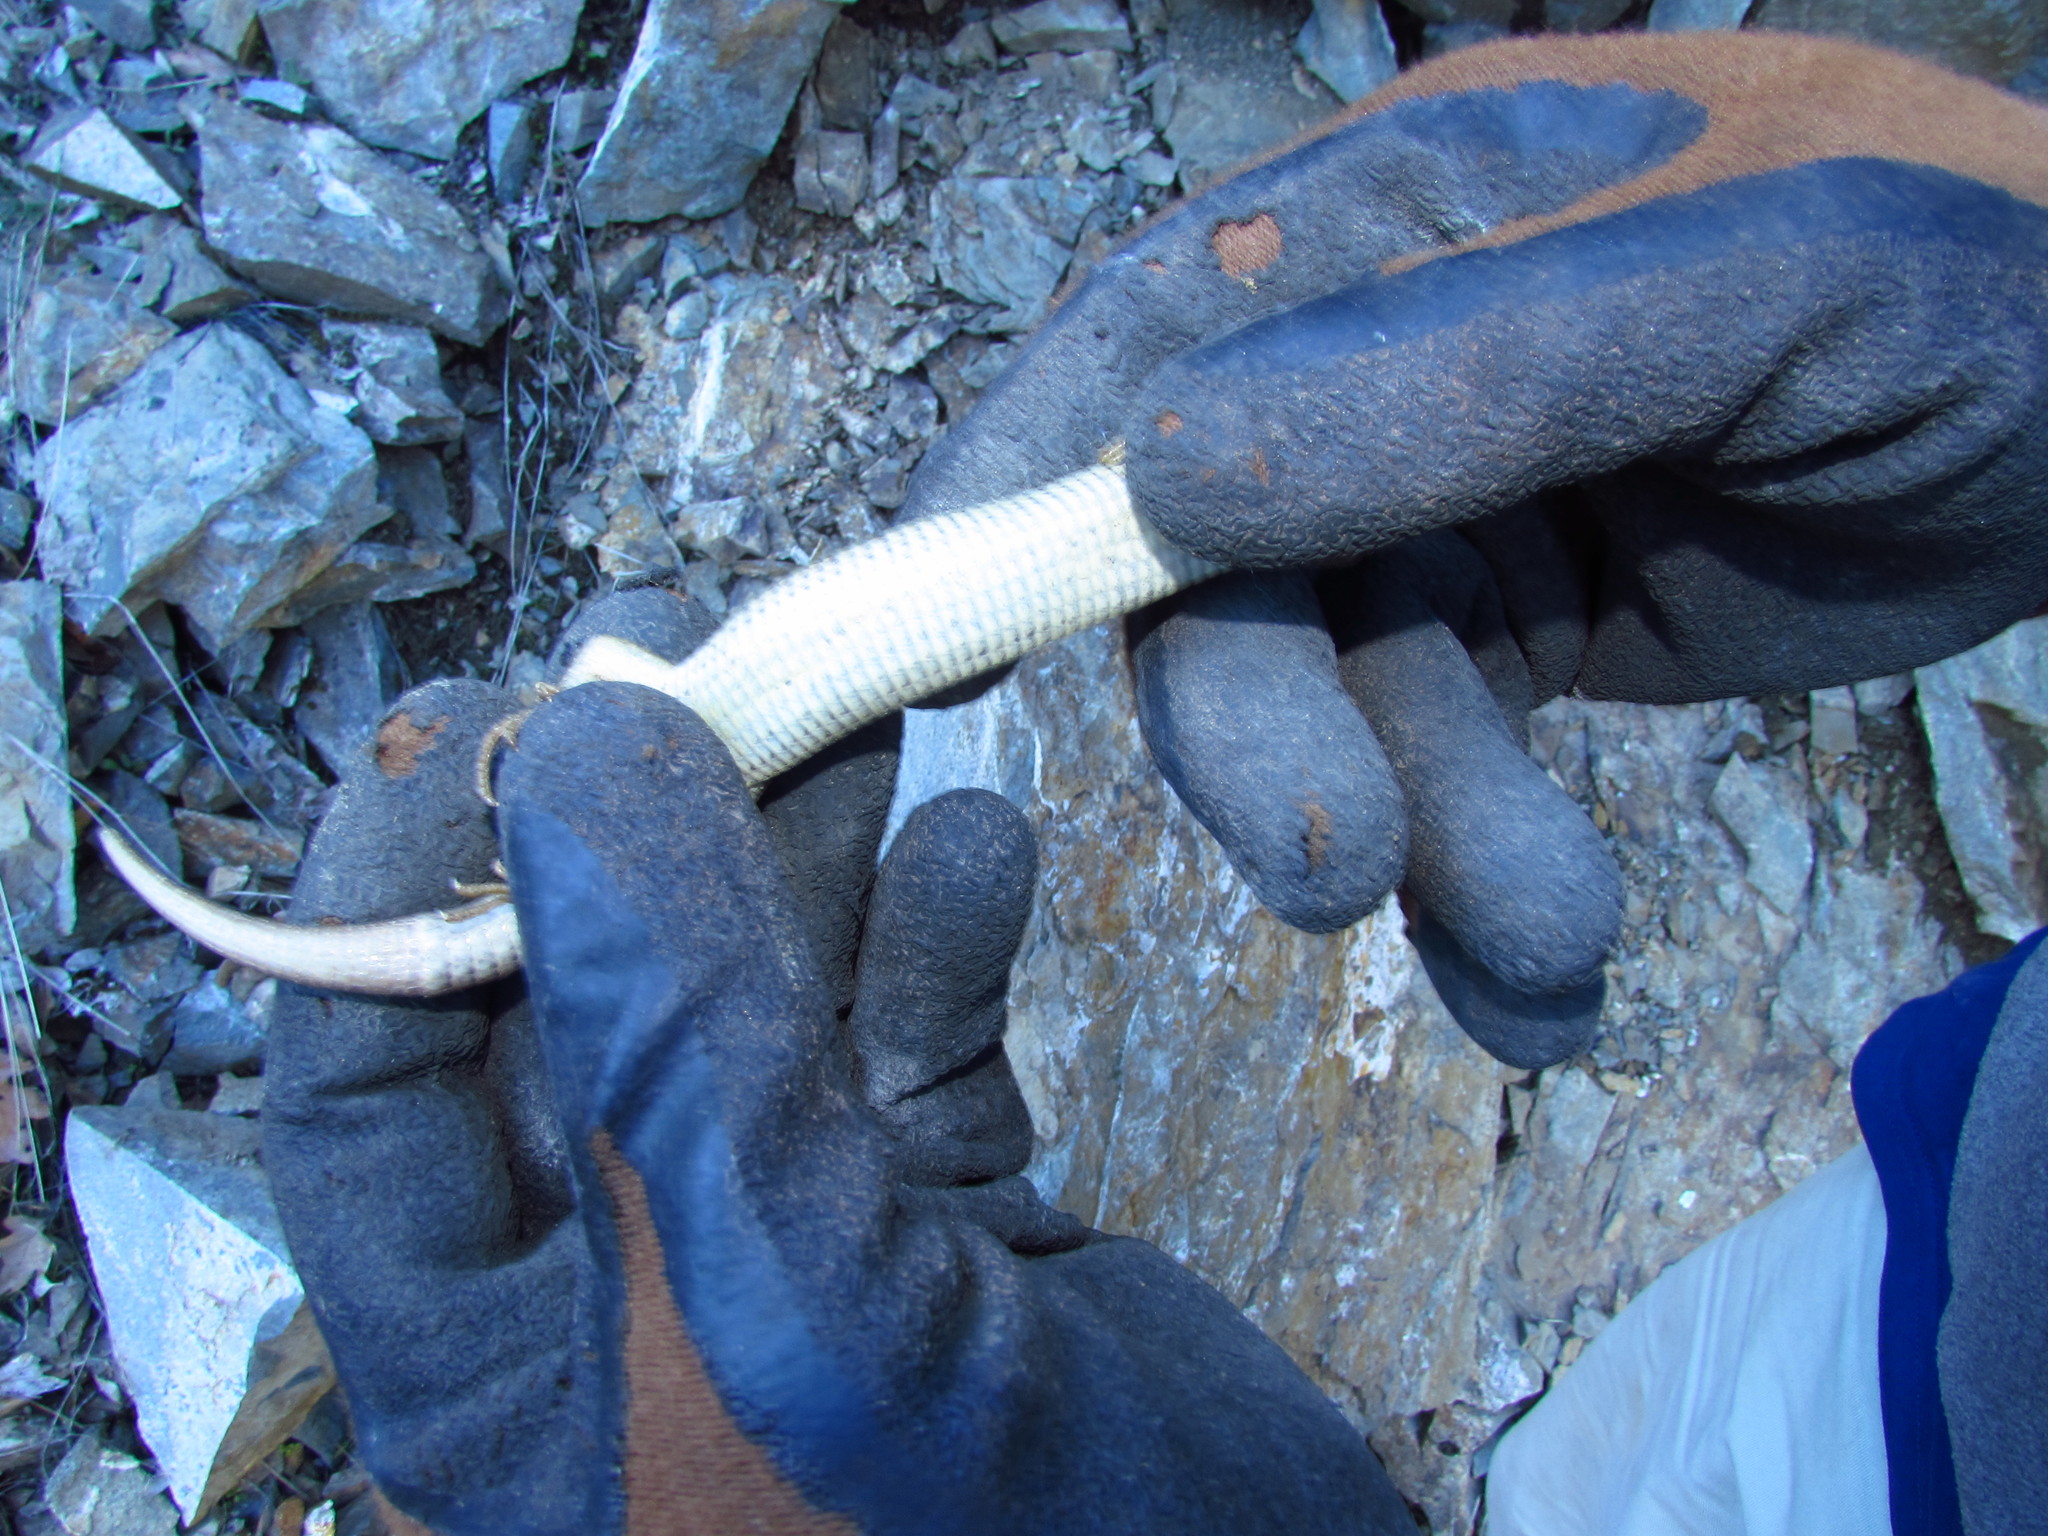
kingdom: Animalia
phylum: Chordata
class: Squamata
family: Anguidae
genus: Elgaria
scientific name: Elgaria coerulea
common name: Northern alligator lizard
